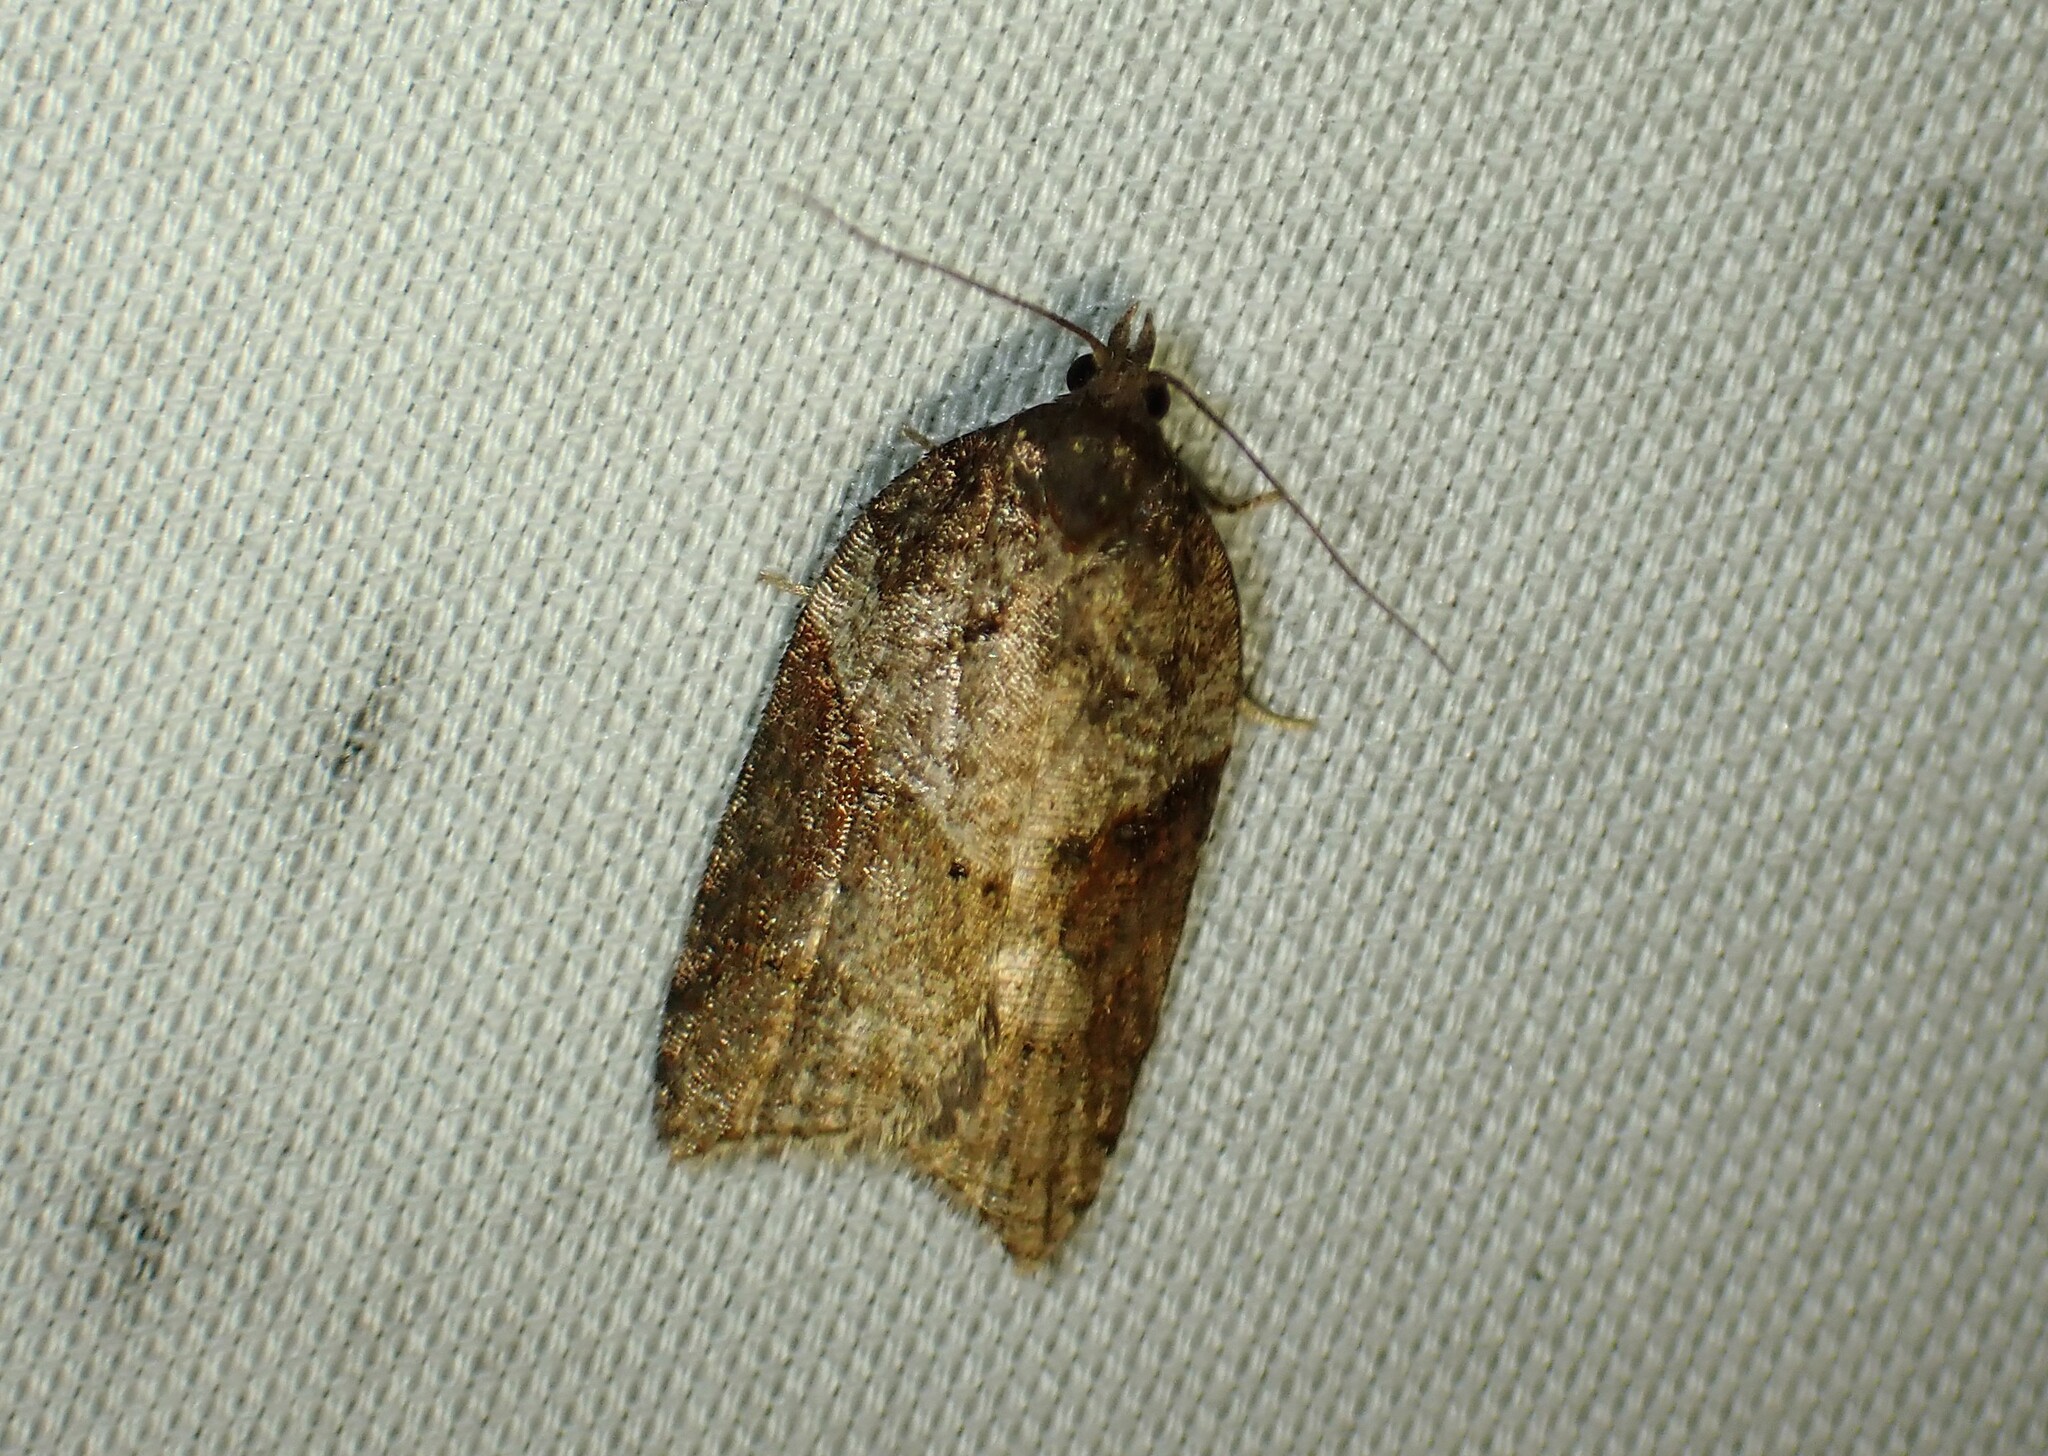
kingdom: Animalia
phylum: Arthropoda
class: Insecta
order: Lepidoptera
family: Tortricidae
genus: Acleris
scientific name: Acleris macdunnoughi
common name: Macdunnough's acleris
